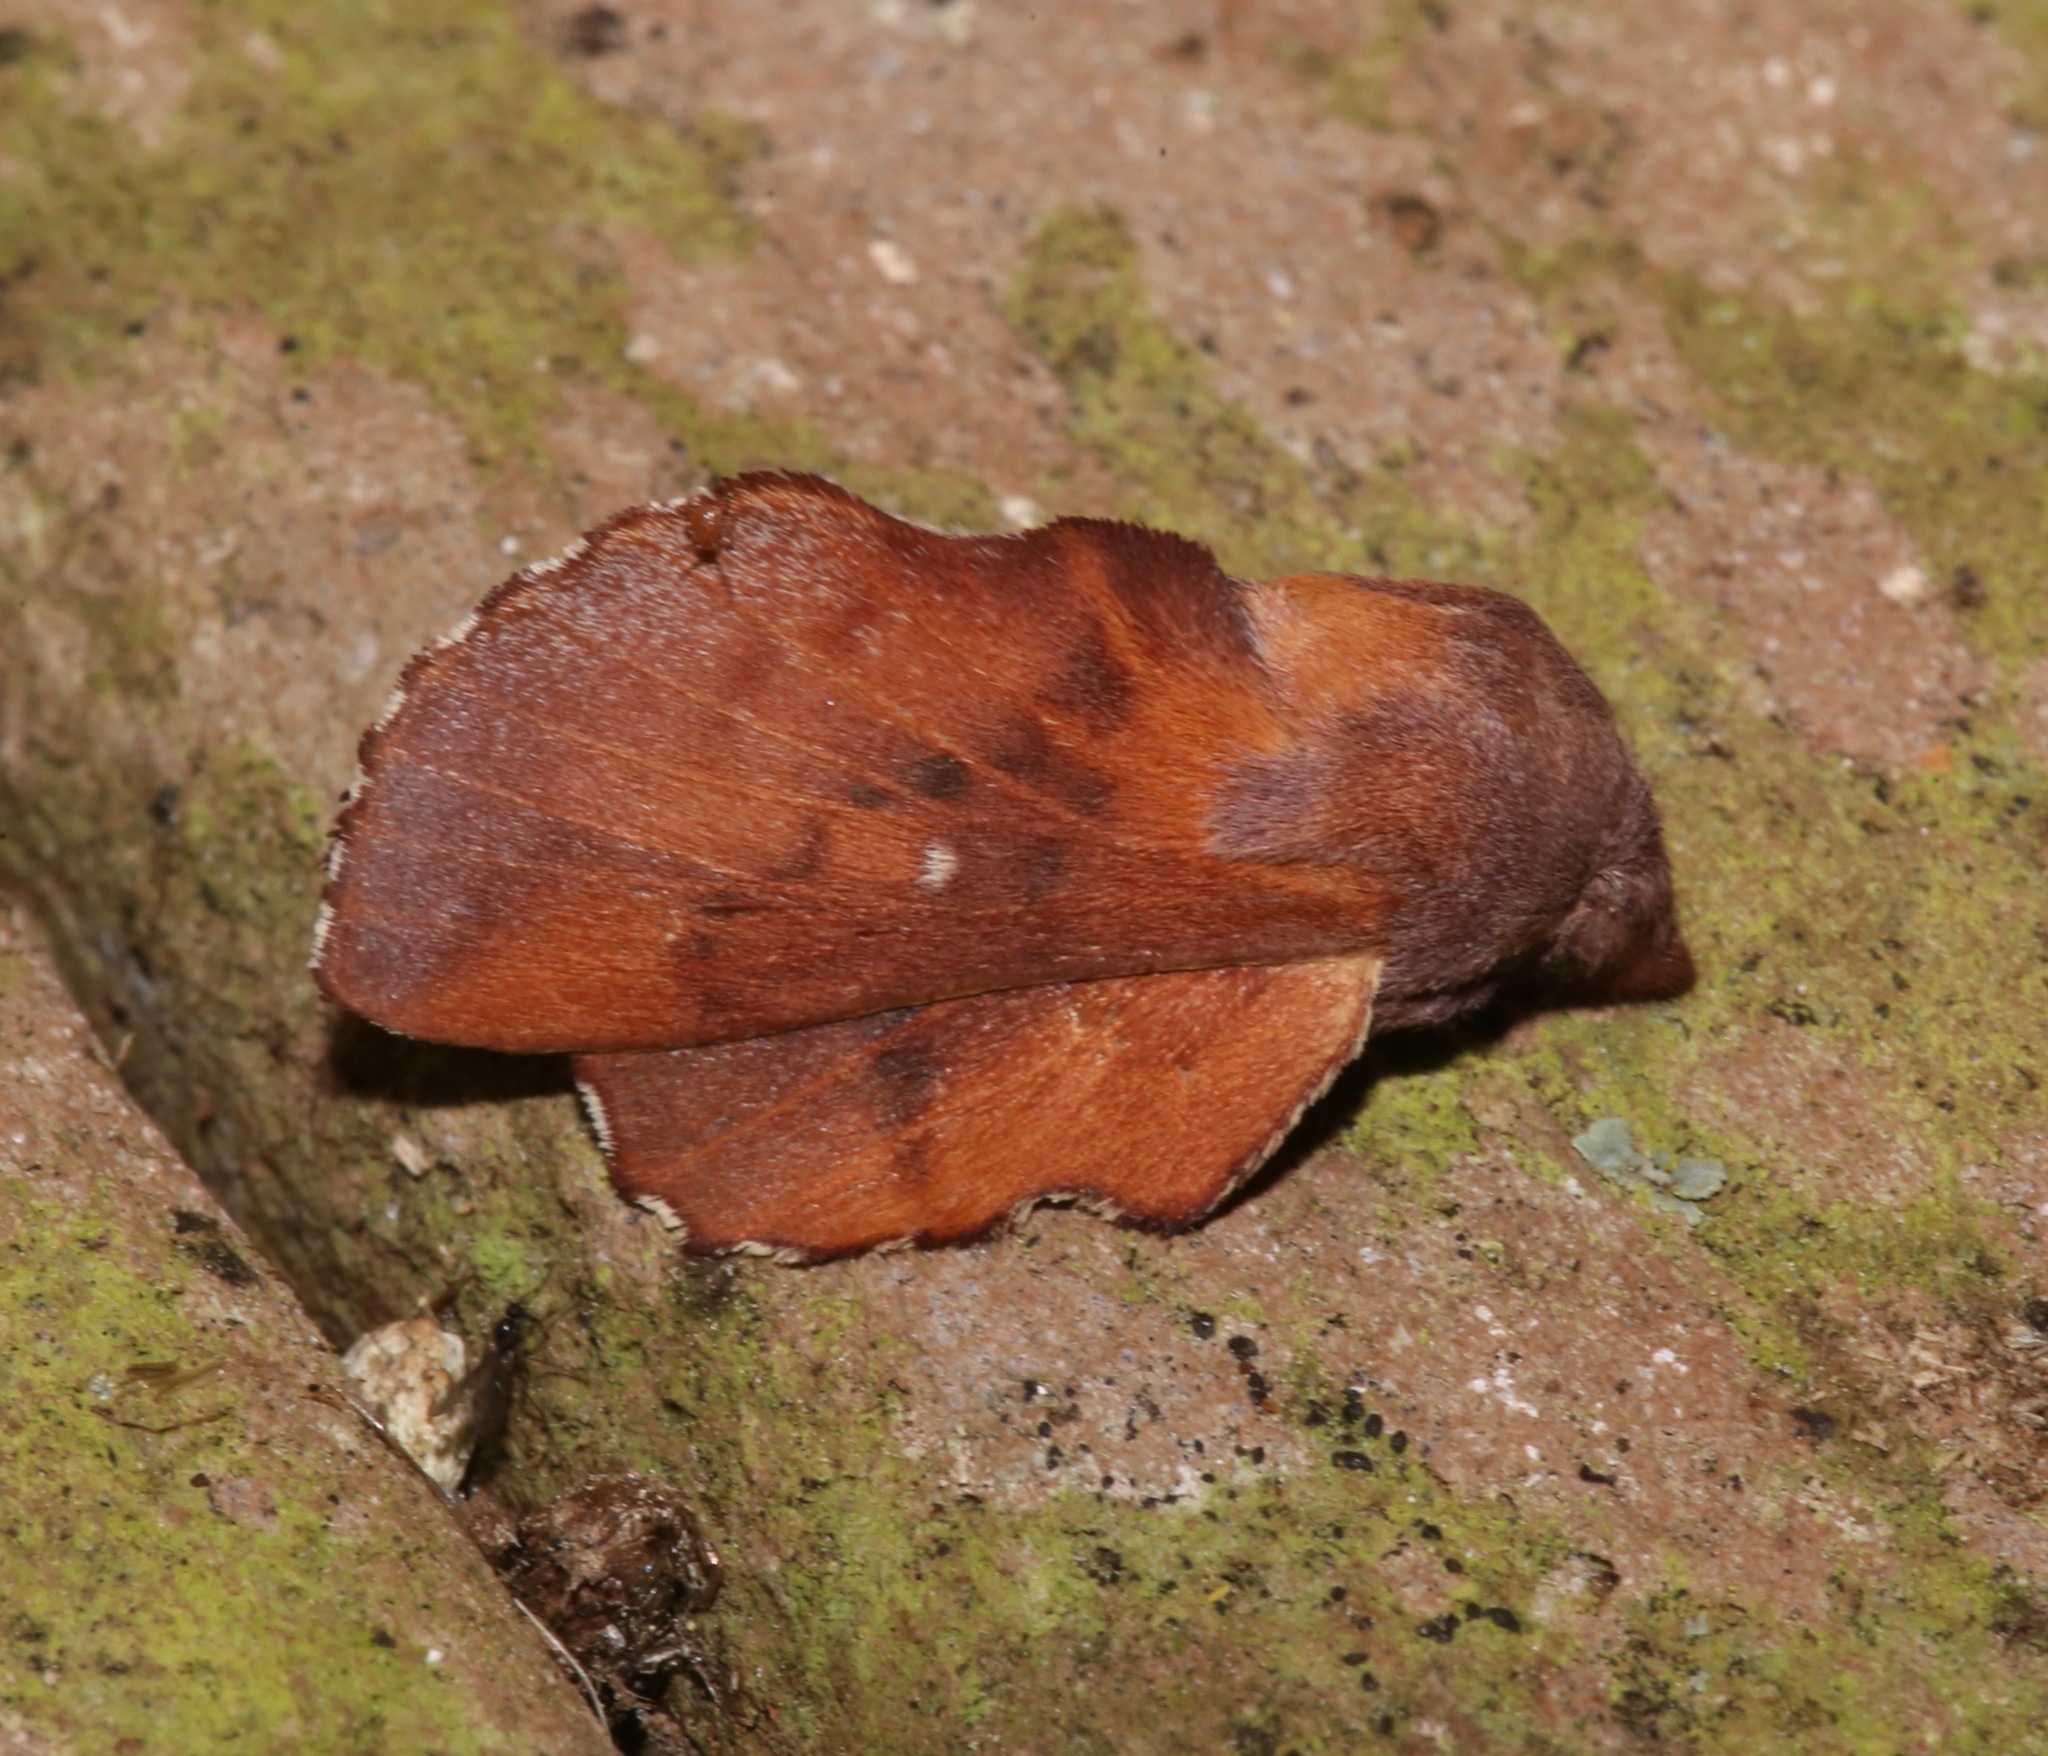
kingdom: Animalia
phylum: Arthropoda
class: Insecta
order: Lepidoptera
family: Lasiocampidae
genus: Phyllodesma
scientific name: Phyllodesma americana
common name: American lappet moth
